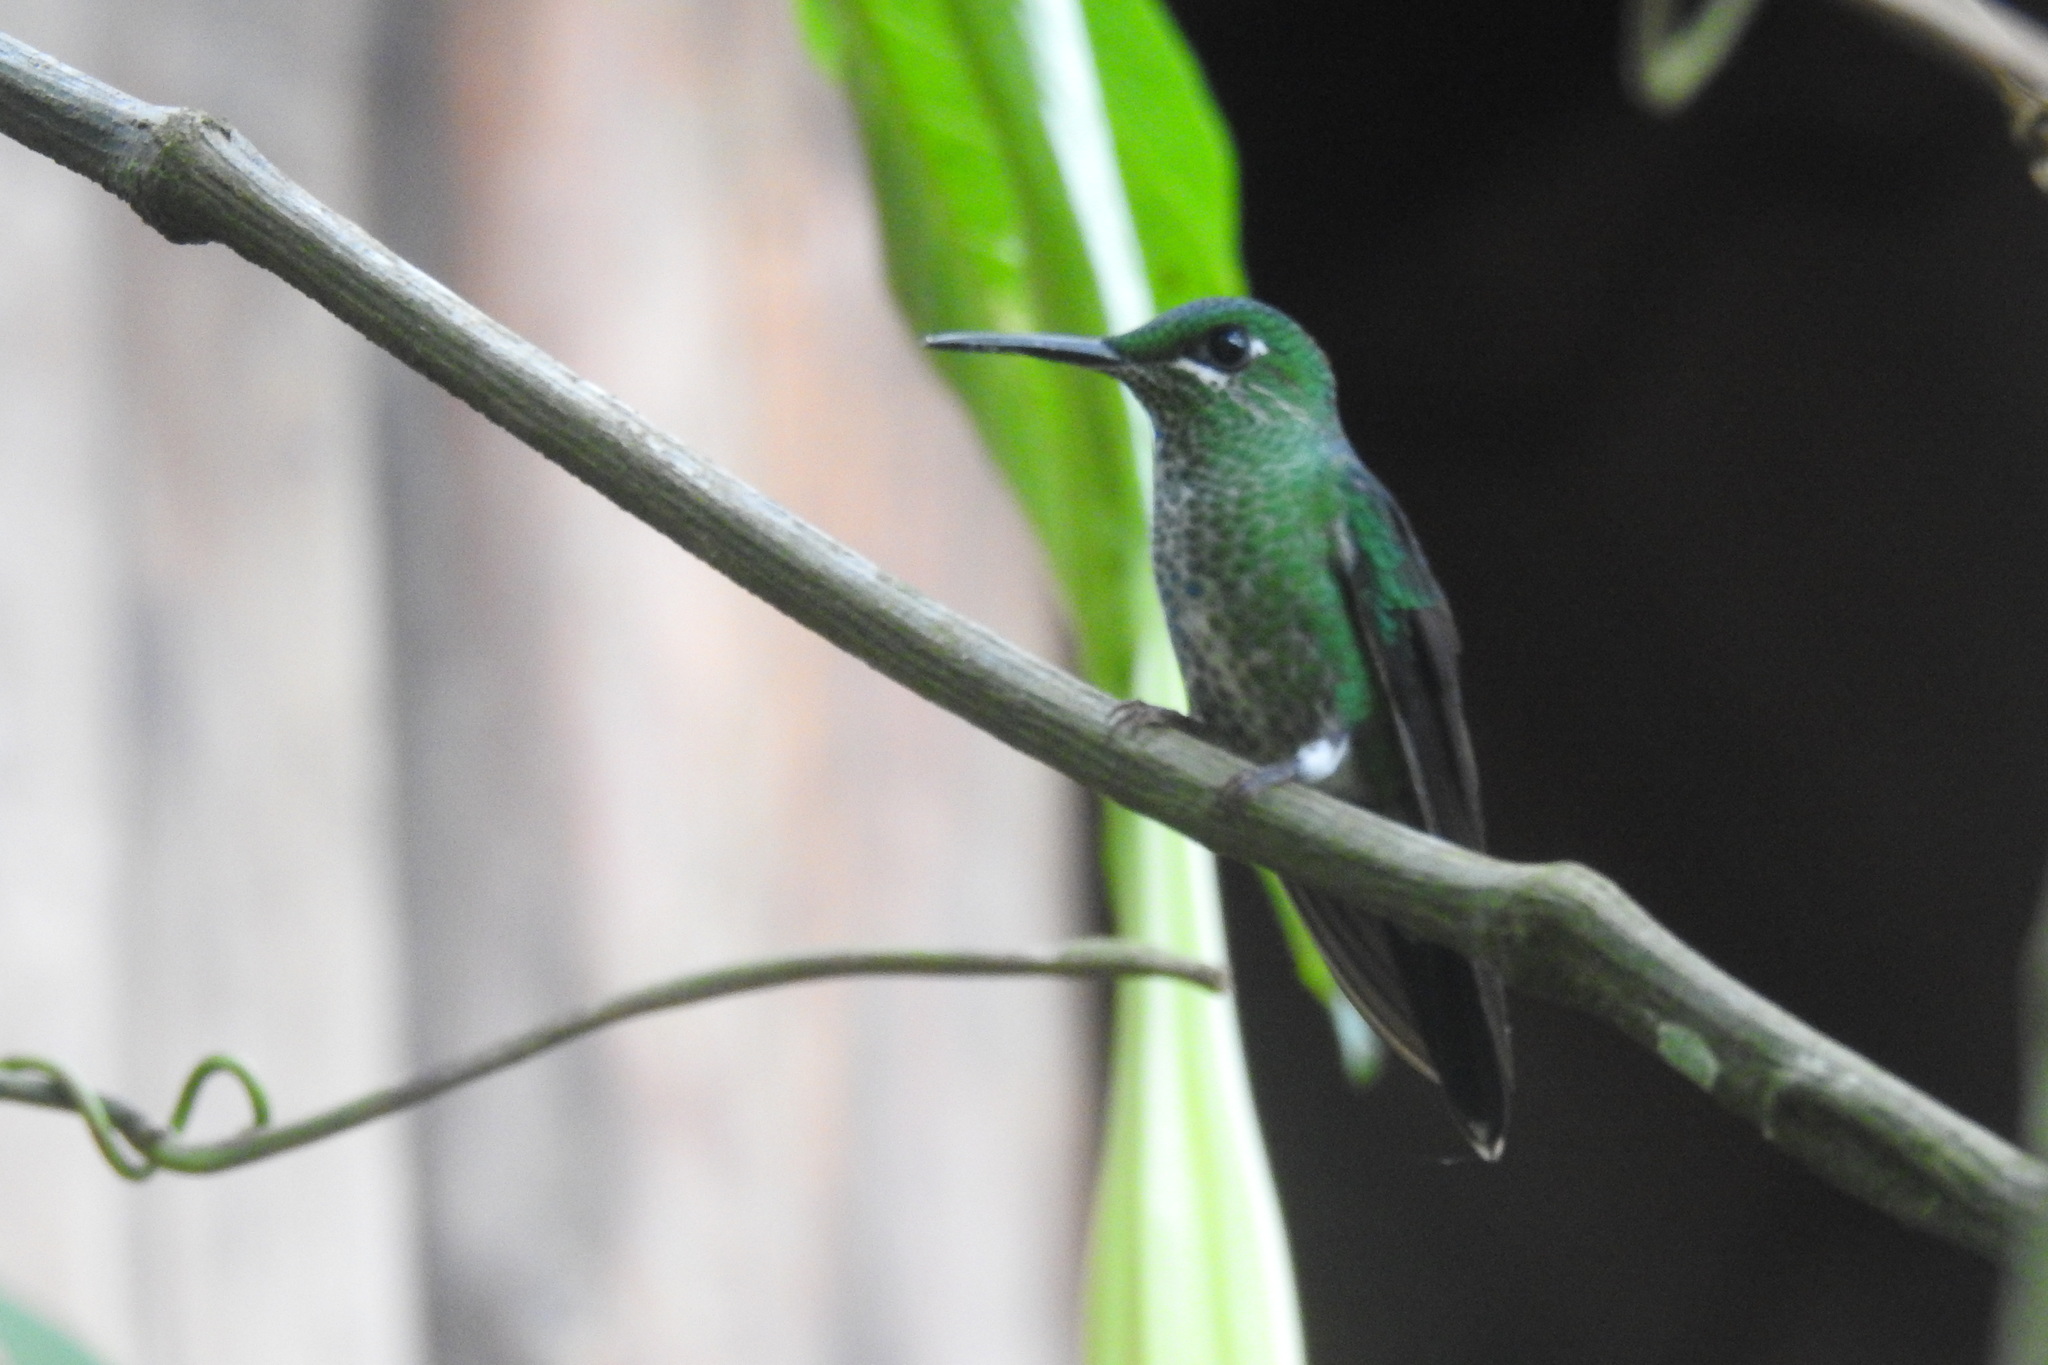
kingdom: Animalia
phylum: Chordata
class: Aves
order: Apodiformes
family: Trochilidae
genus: Heliodoxa
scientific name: Heliodoxa jacula
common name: Green-crowned brilliant
